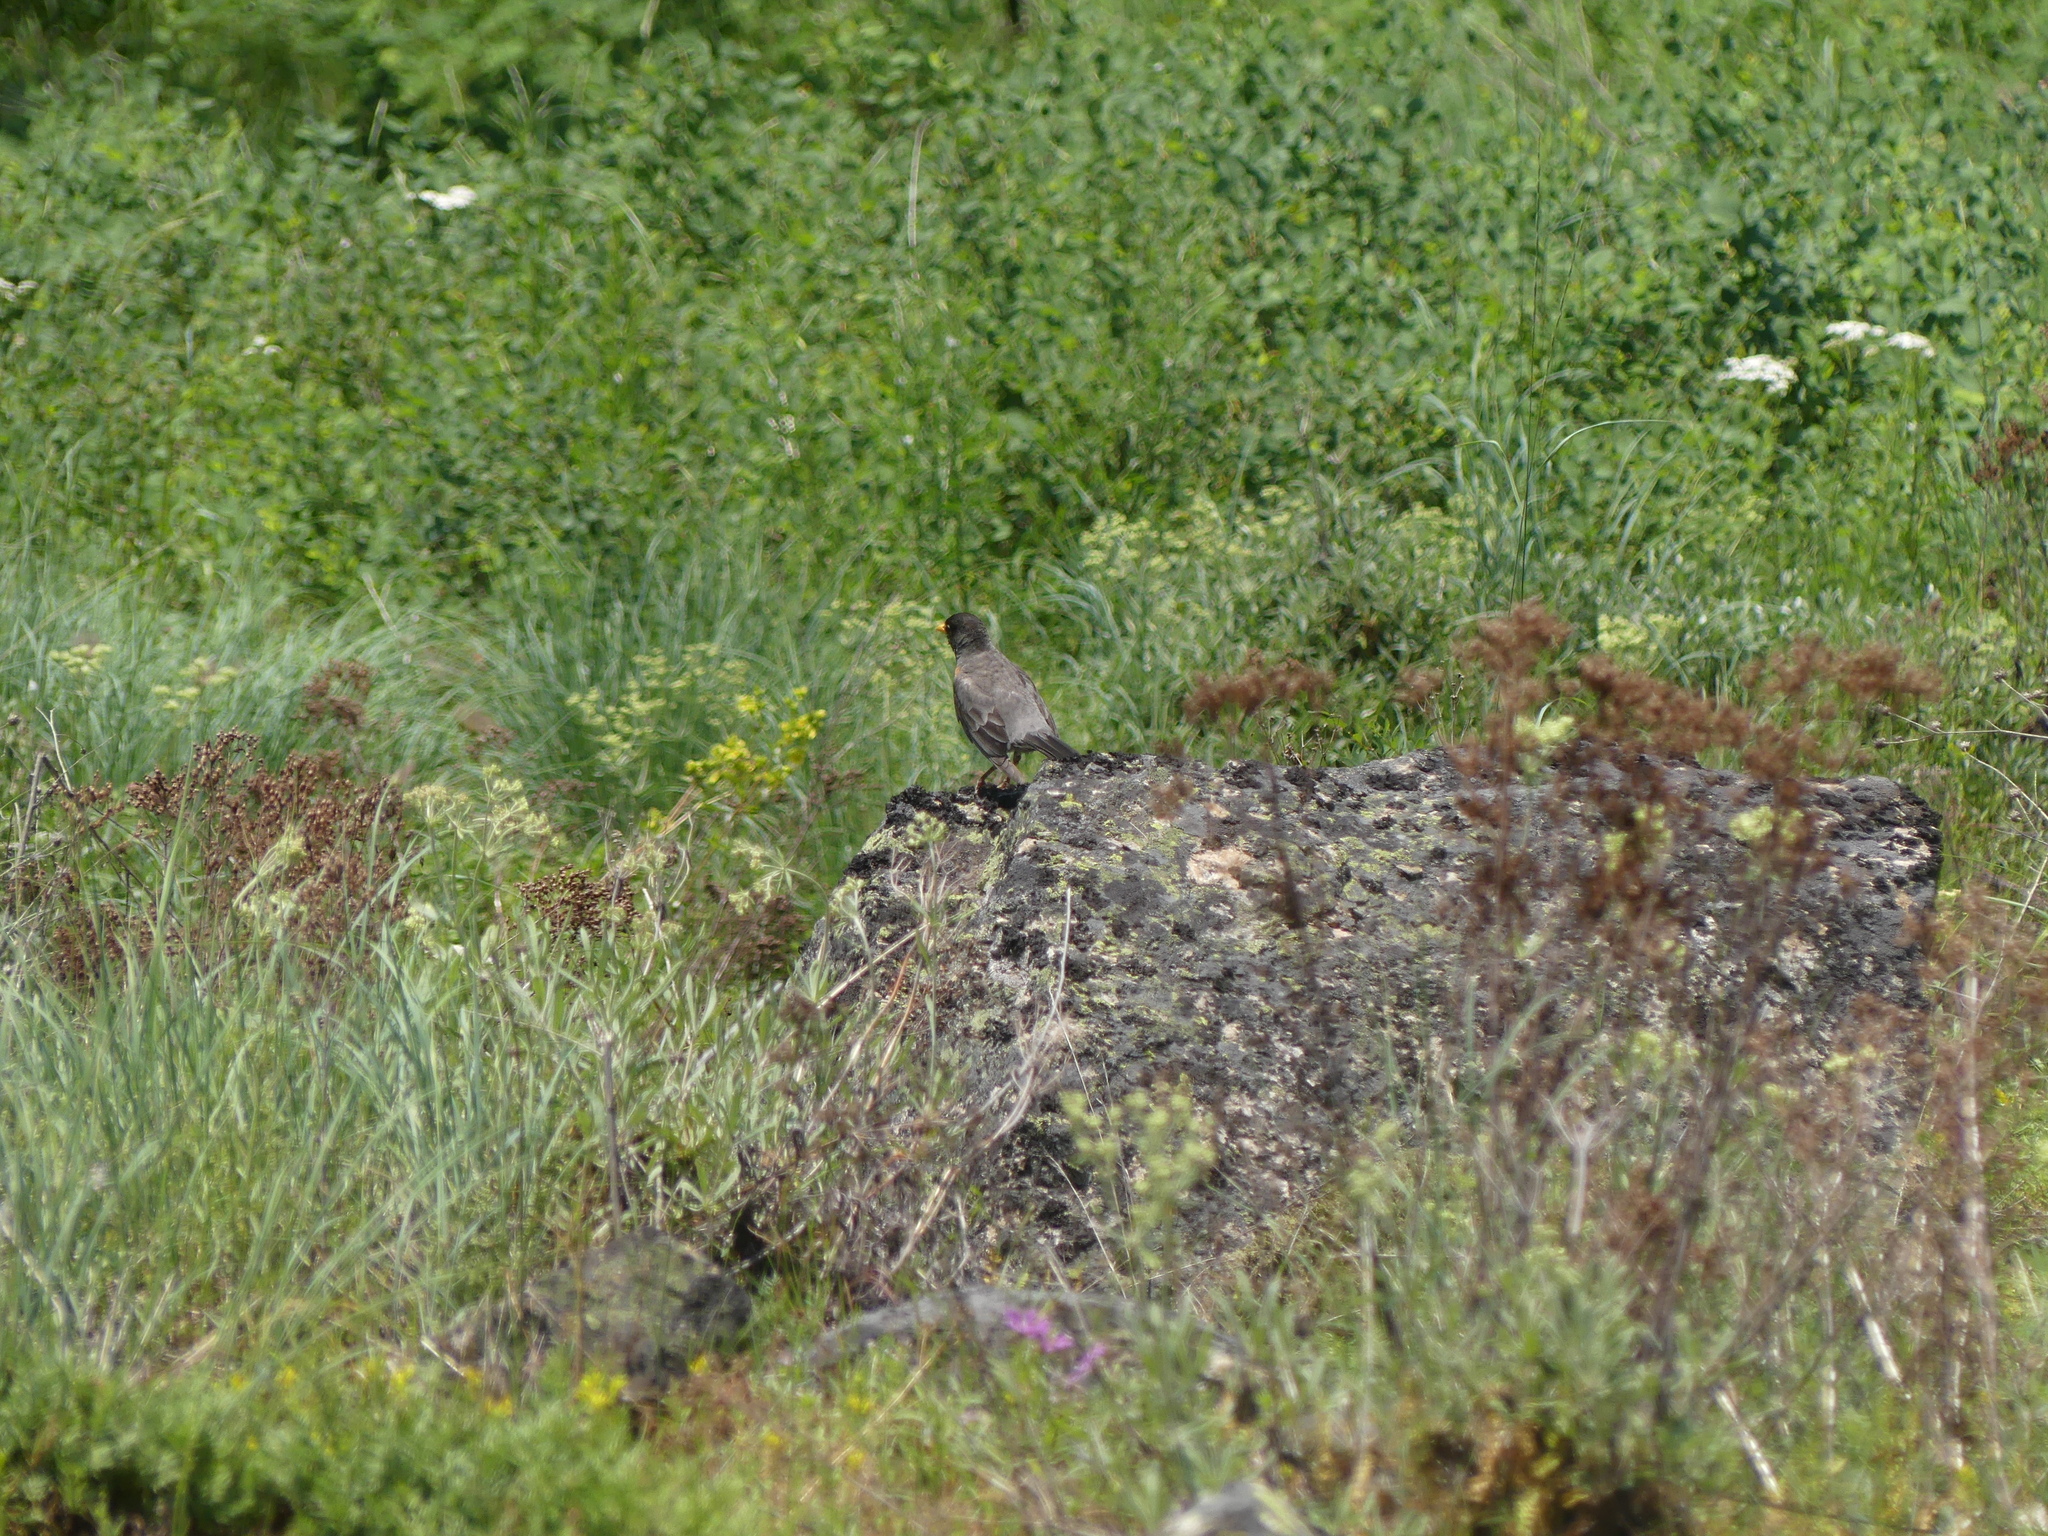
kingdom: Animalia
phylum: Chordata
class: Aves
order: Passeriformes
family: Turdidae
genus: Turdus
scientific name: Turdus migratorius
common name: American robin
